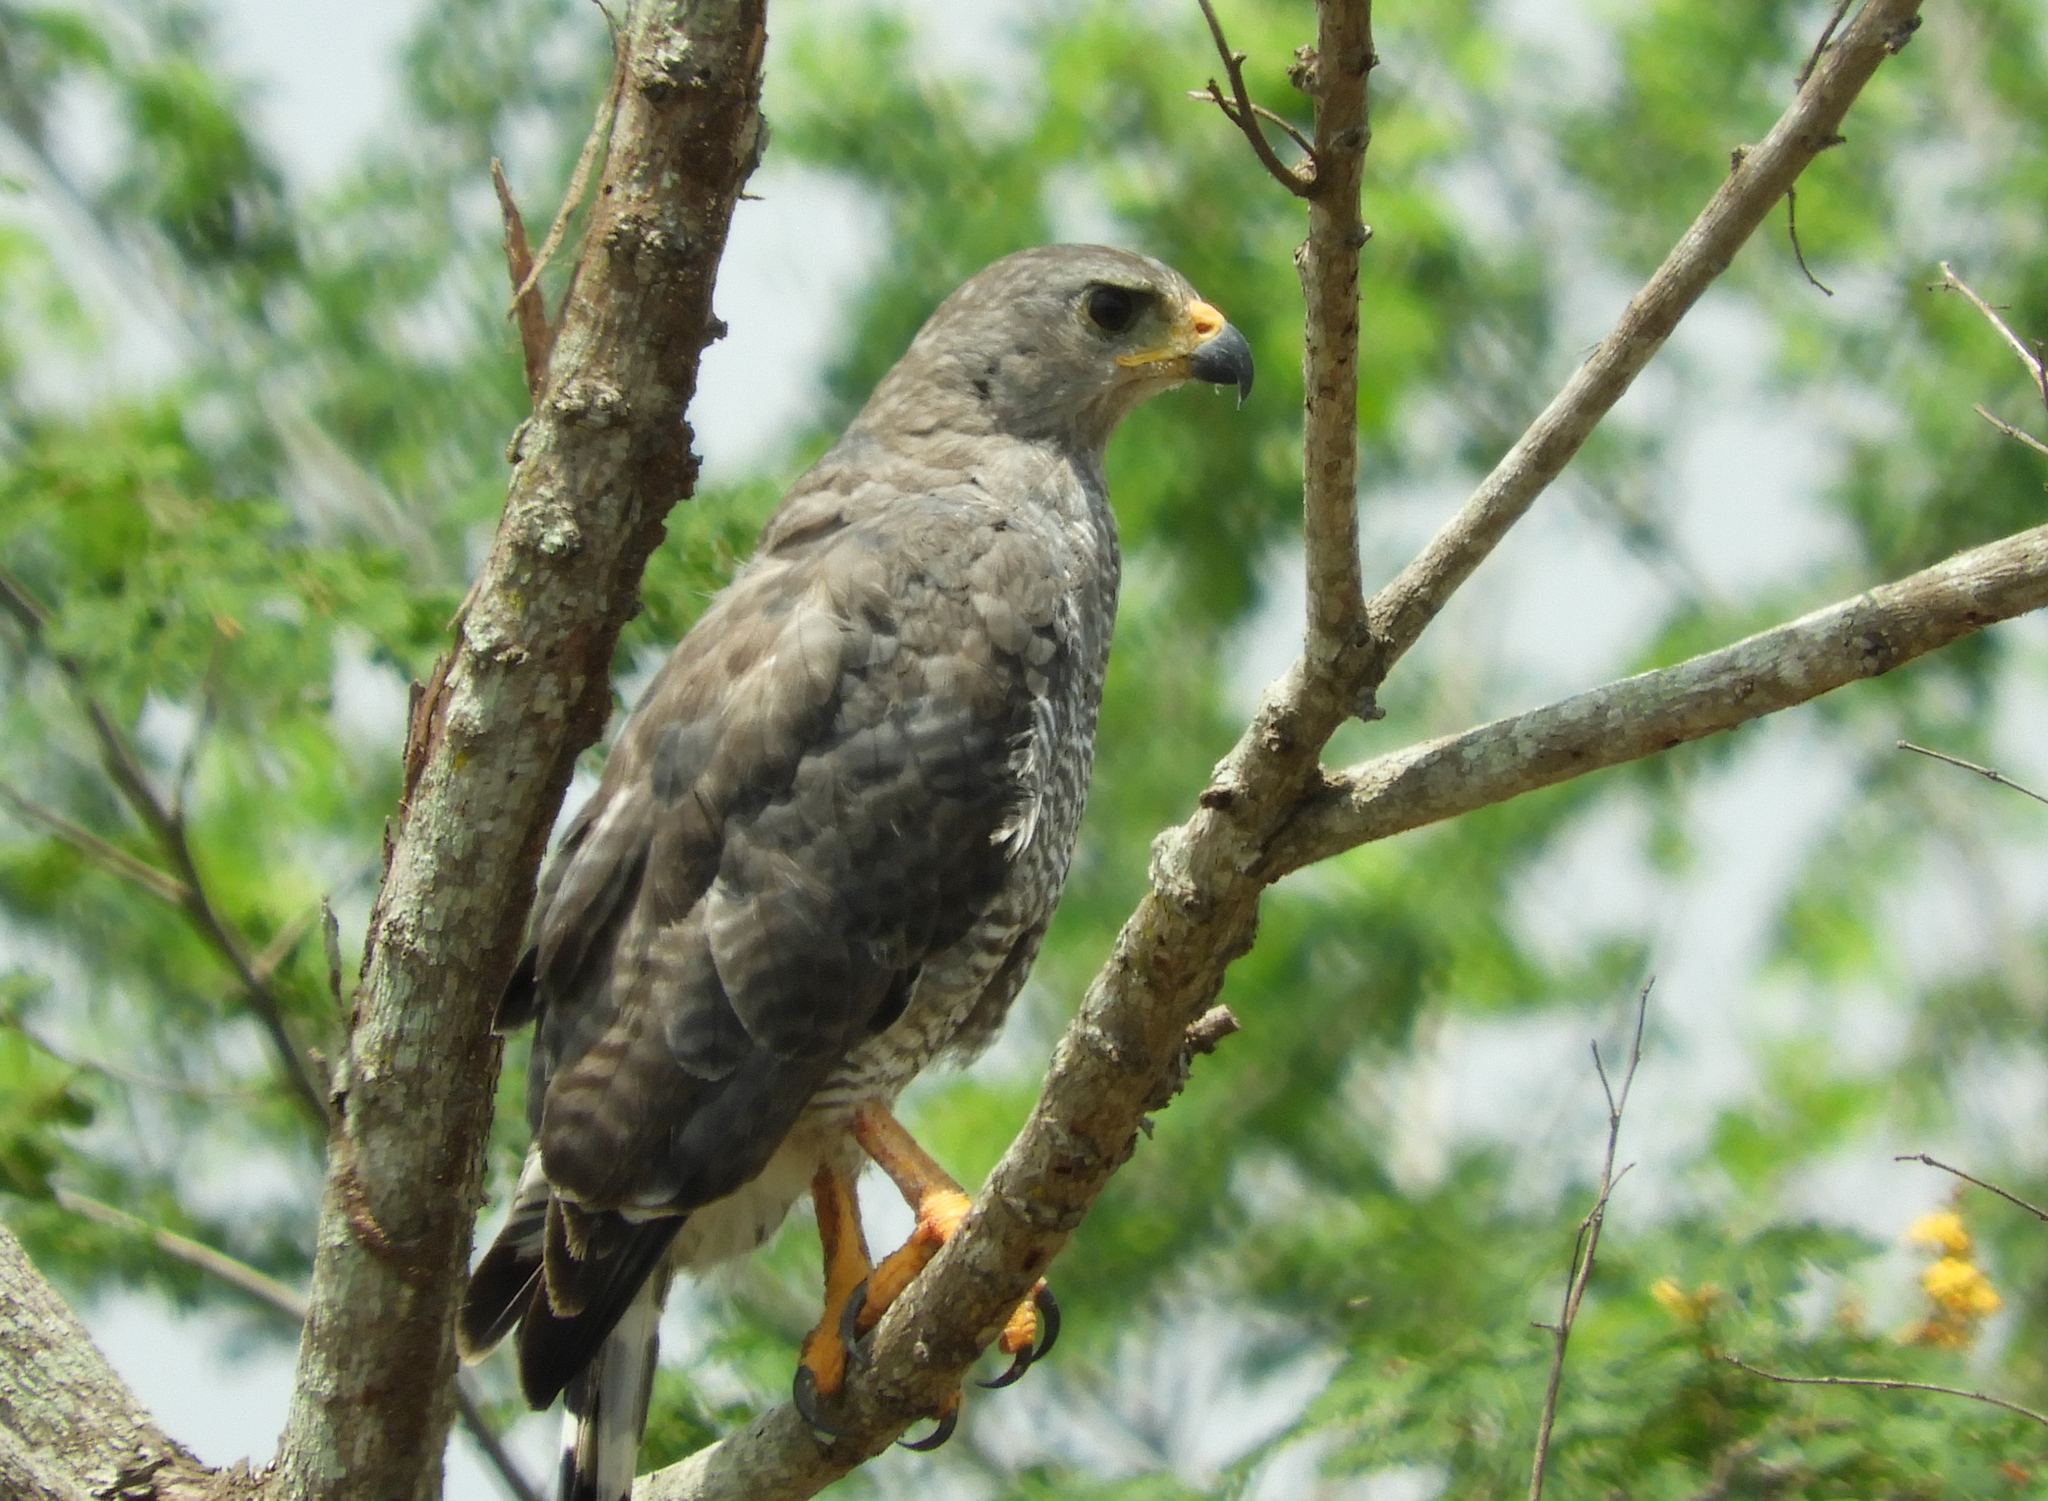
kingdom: Animalia
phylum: Chordata
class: Aves
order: Accipitriformes
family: Accipitridae
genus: Buteo
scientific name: Buteo nitidus
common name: Grey-lined hawk
